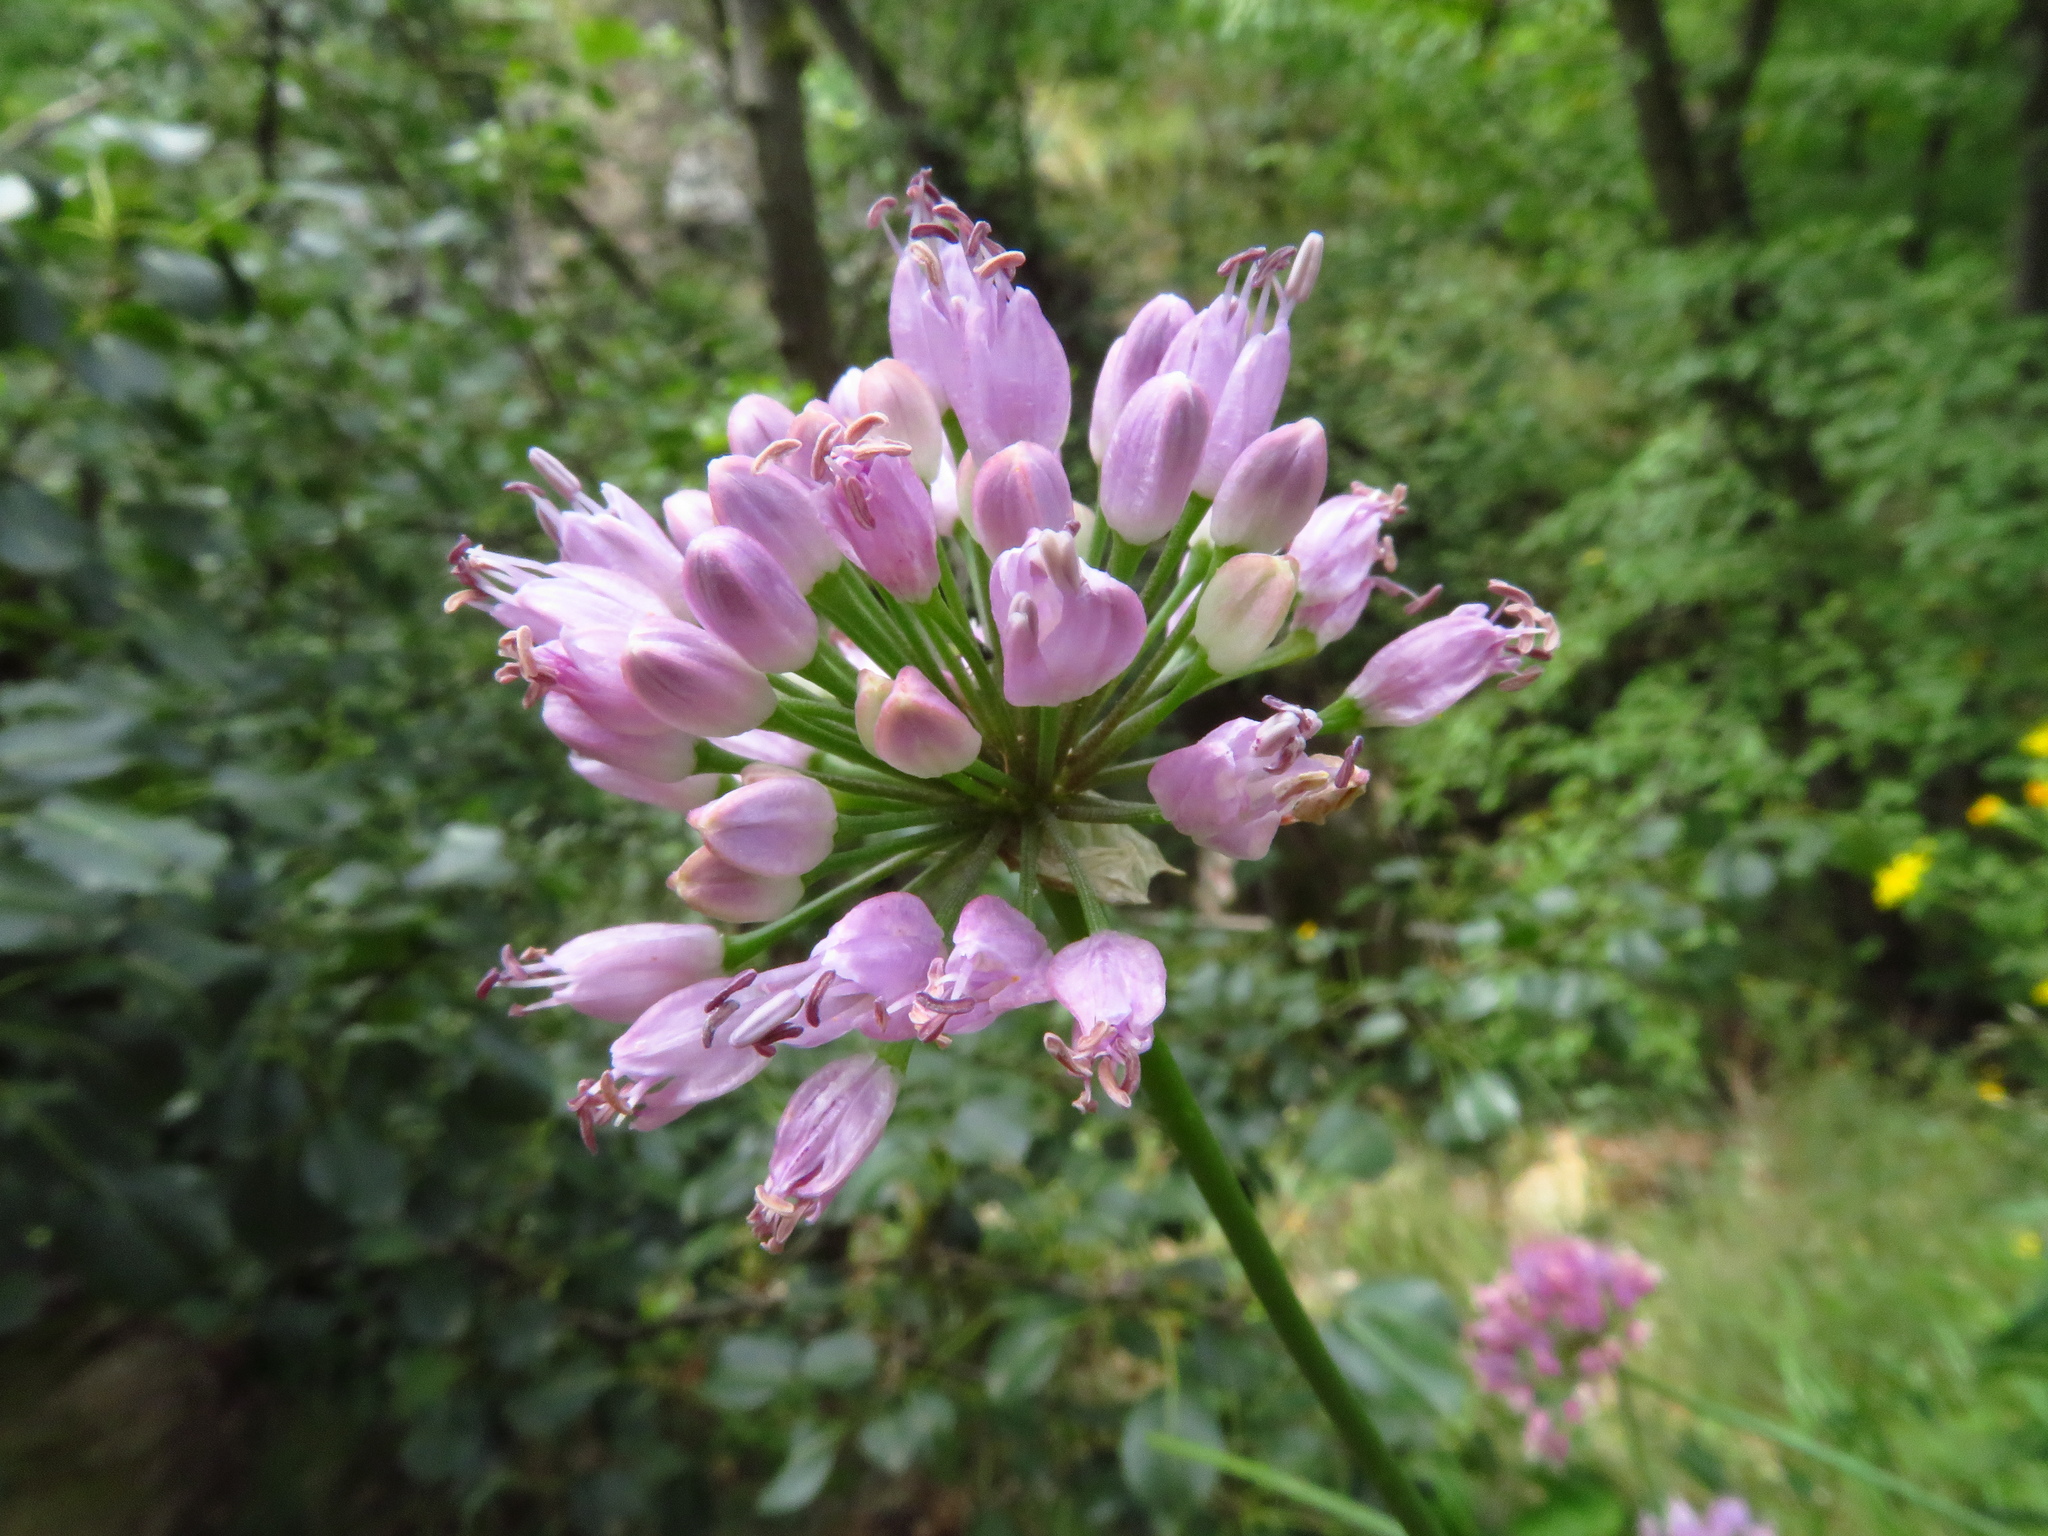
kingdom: Plantae
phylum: Tracheophyta
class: Liliopsida
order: Asparagales
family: Amaryllidaceae
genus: Allium
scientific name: Allium lusitanicum
